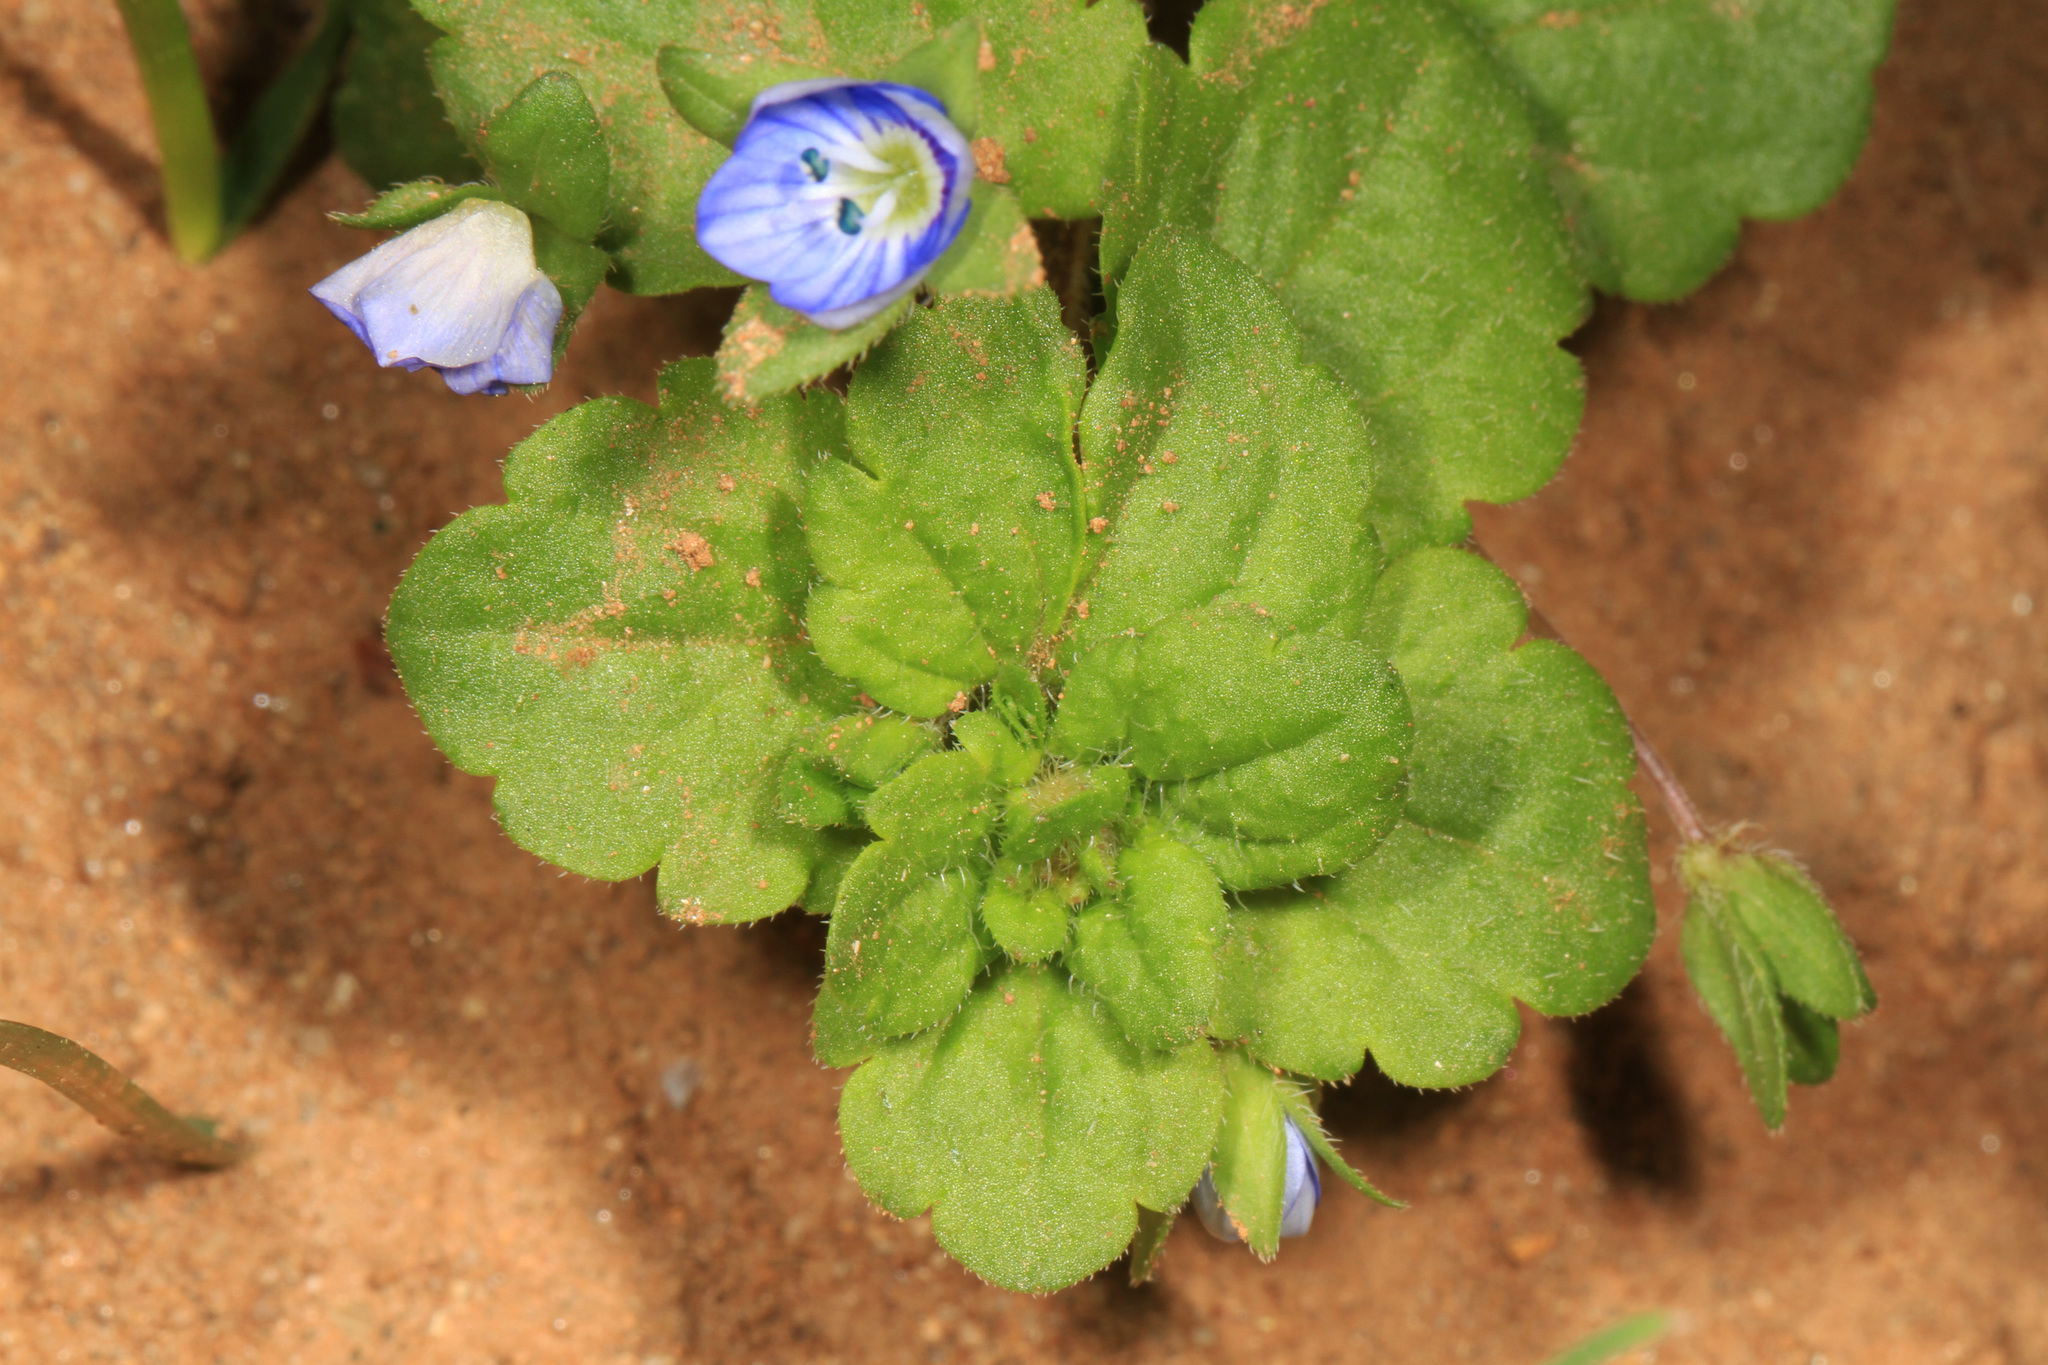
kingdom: Plantae
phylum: Tracheophyta
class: Magnoliopsida
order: Lamiales
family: Plantaginaceae
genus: Veronica
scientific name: Veronica persica
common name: Common field-speedwell
